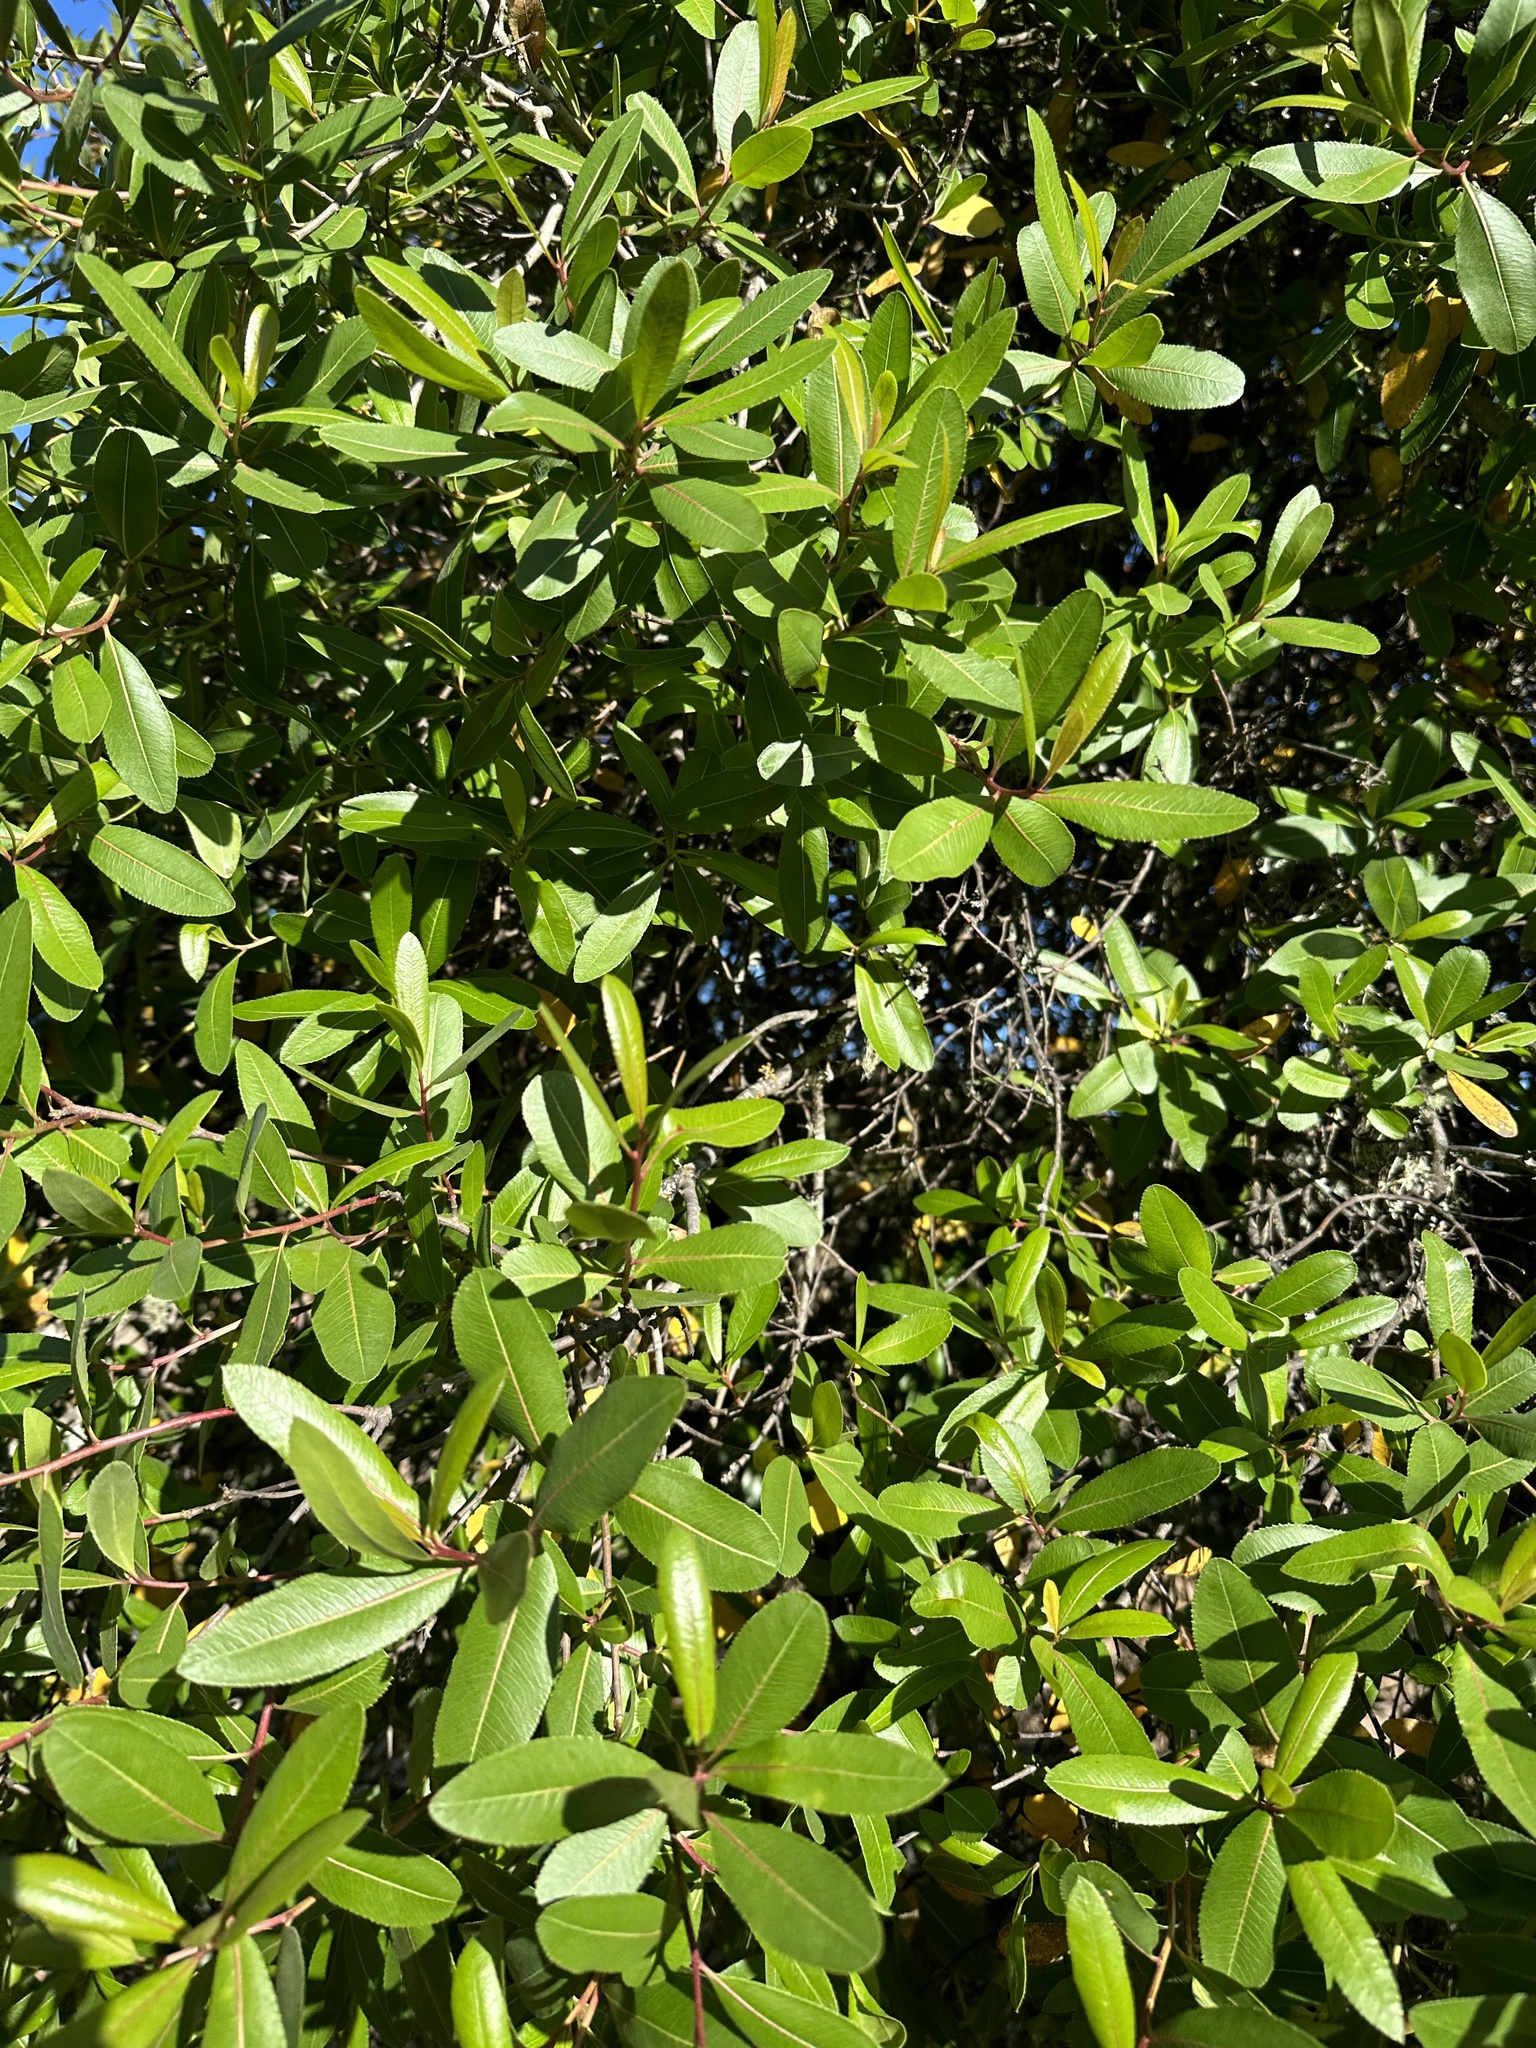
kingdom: Plantae
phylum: Tracheophyta
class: Magnoliopsida
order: Rosales
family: Rosaceae
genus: Kageneckia
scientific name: Kageneckia oblonga
